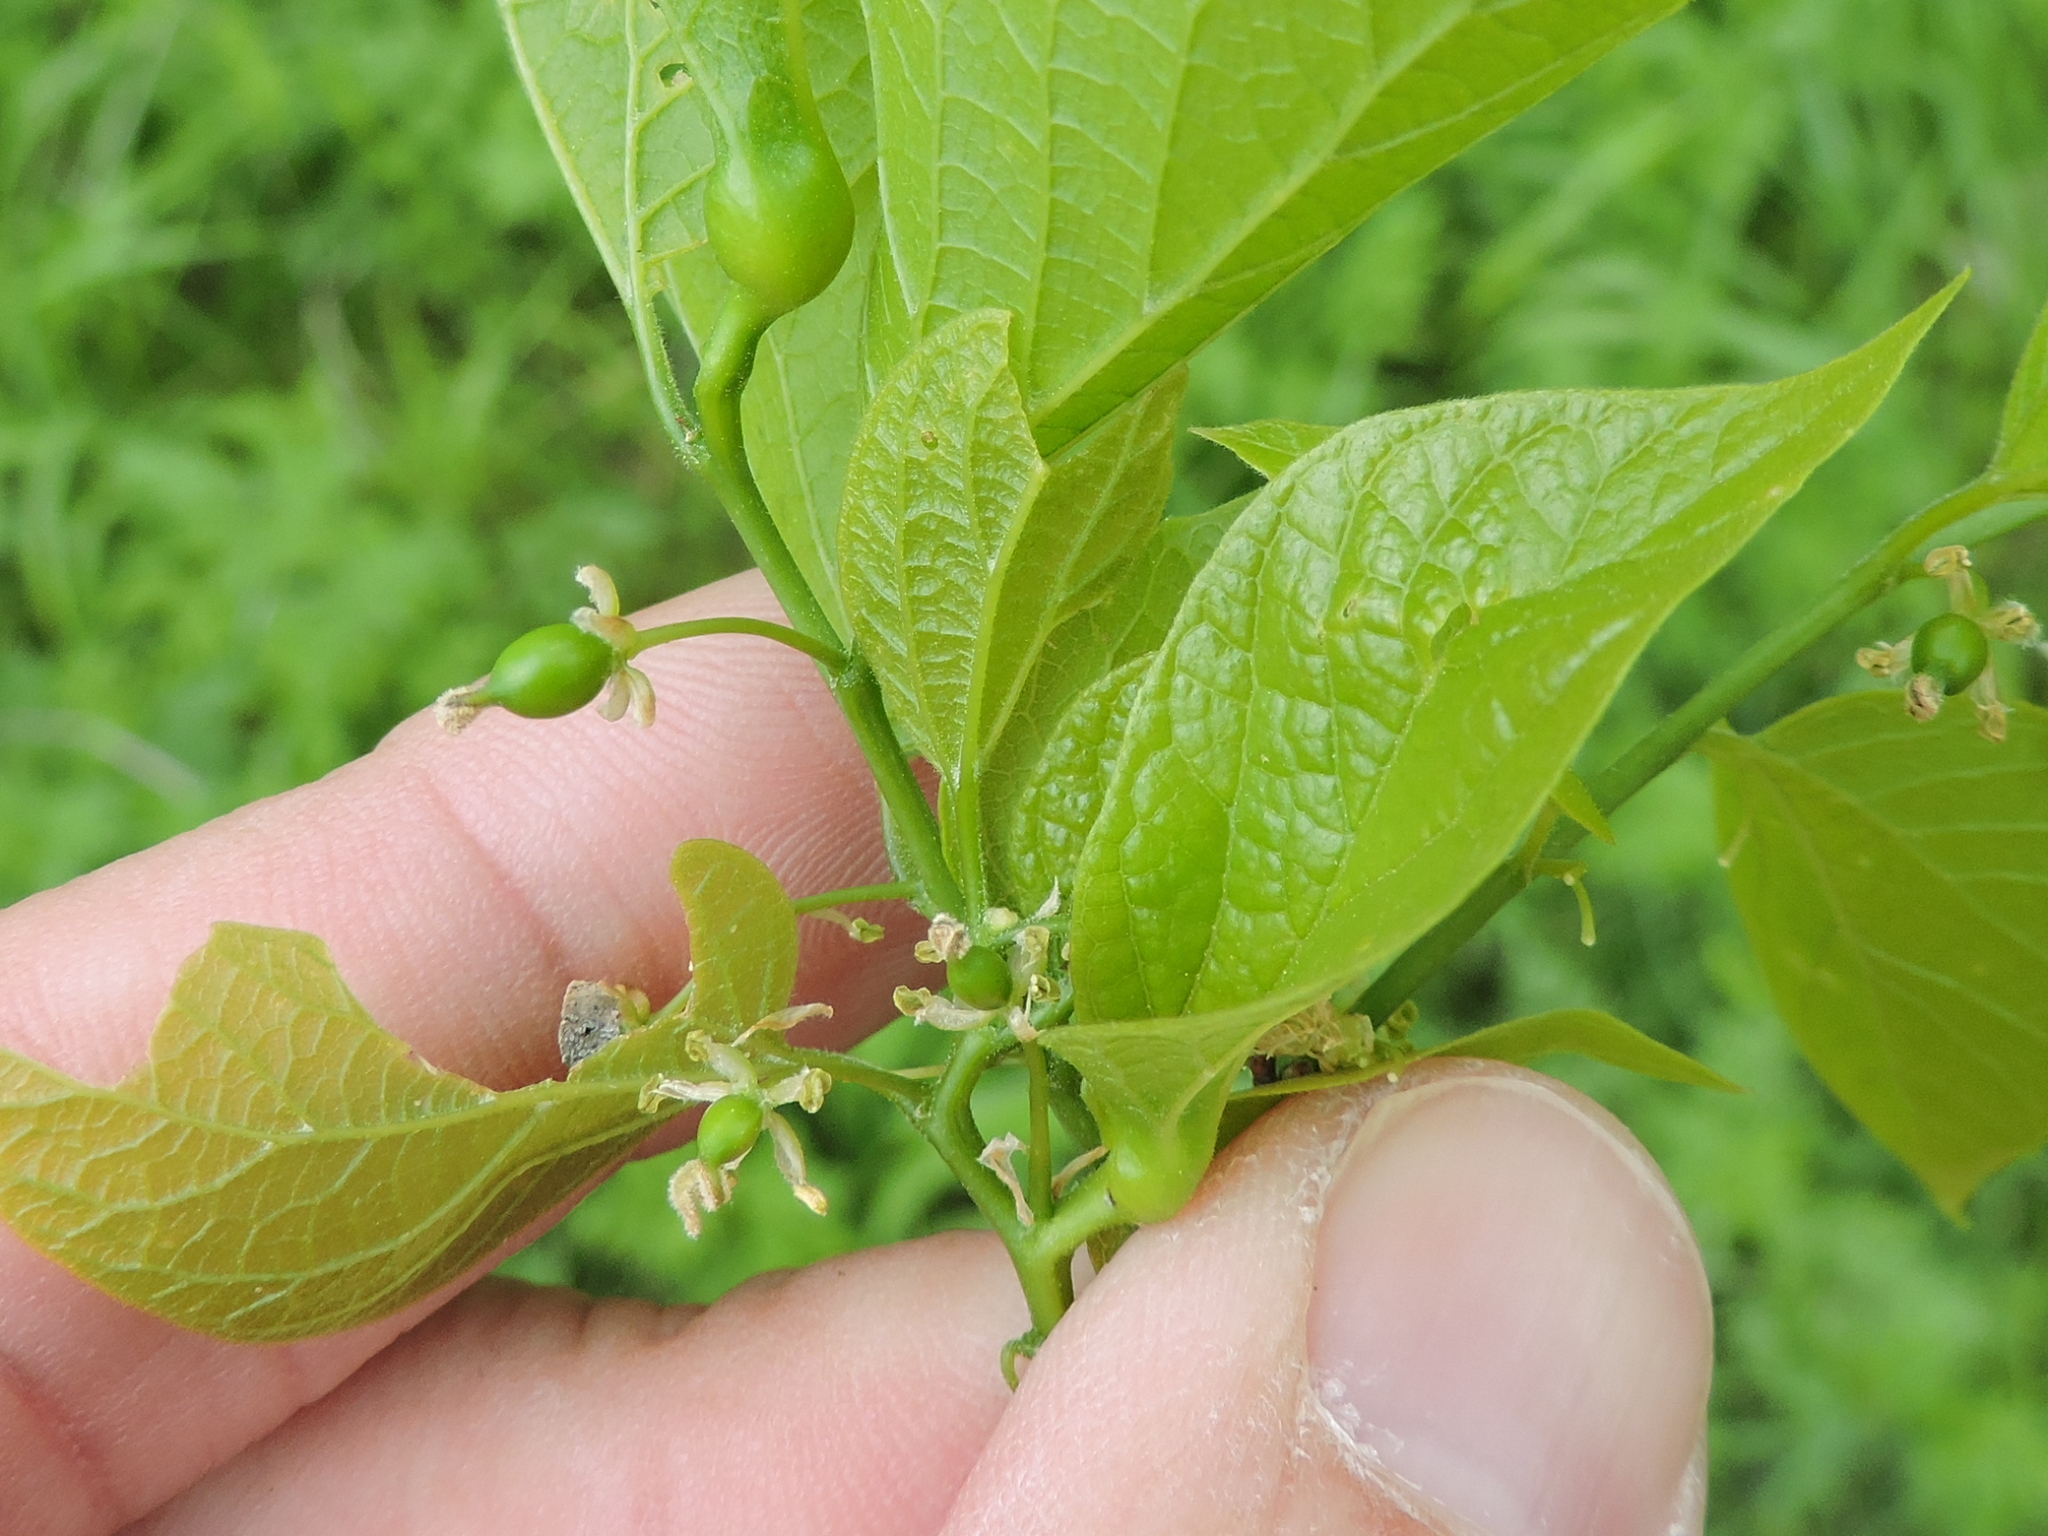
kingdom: Plantae
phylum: Tracheophyta
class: Magnoliopsida
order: Rosales
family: Cannabaceae
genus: Celtis
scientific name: Celtis laevigata
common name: Sugarberry
